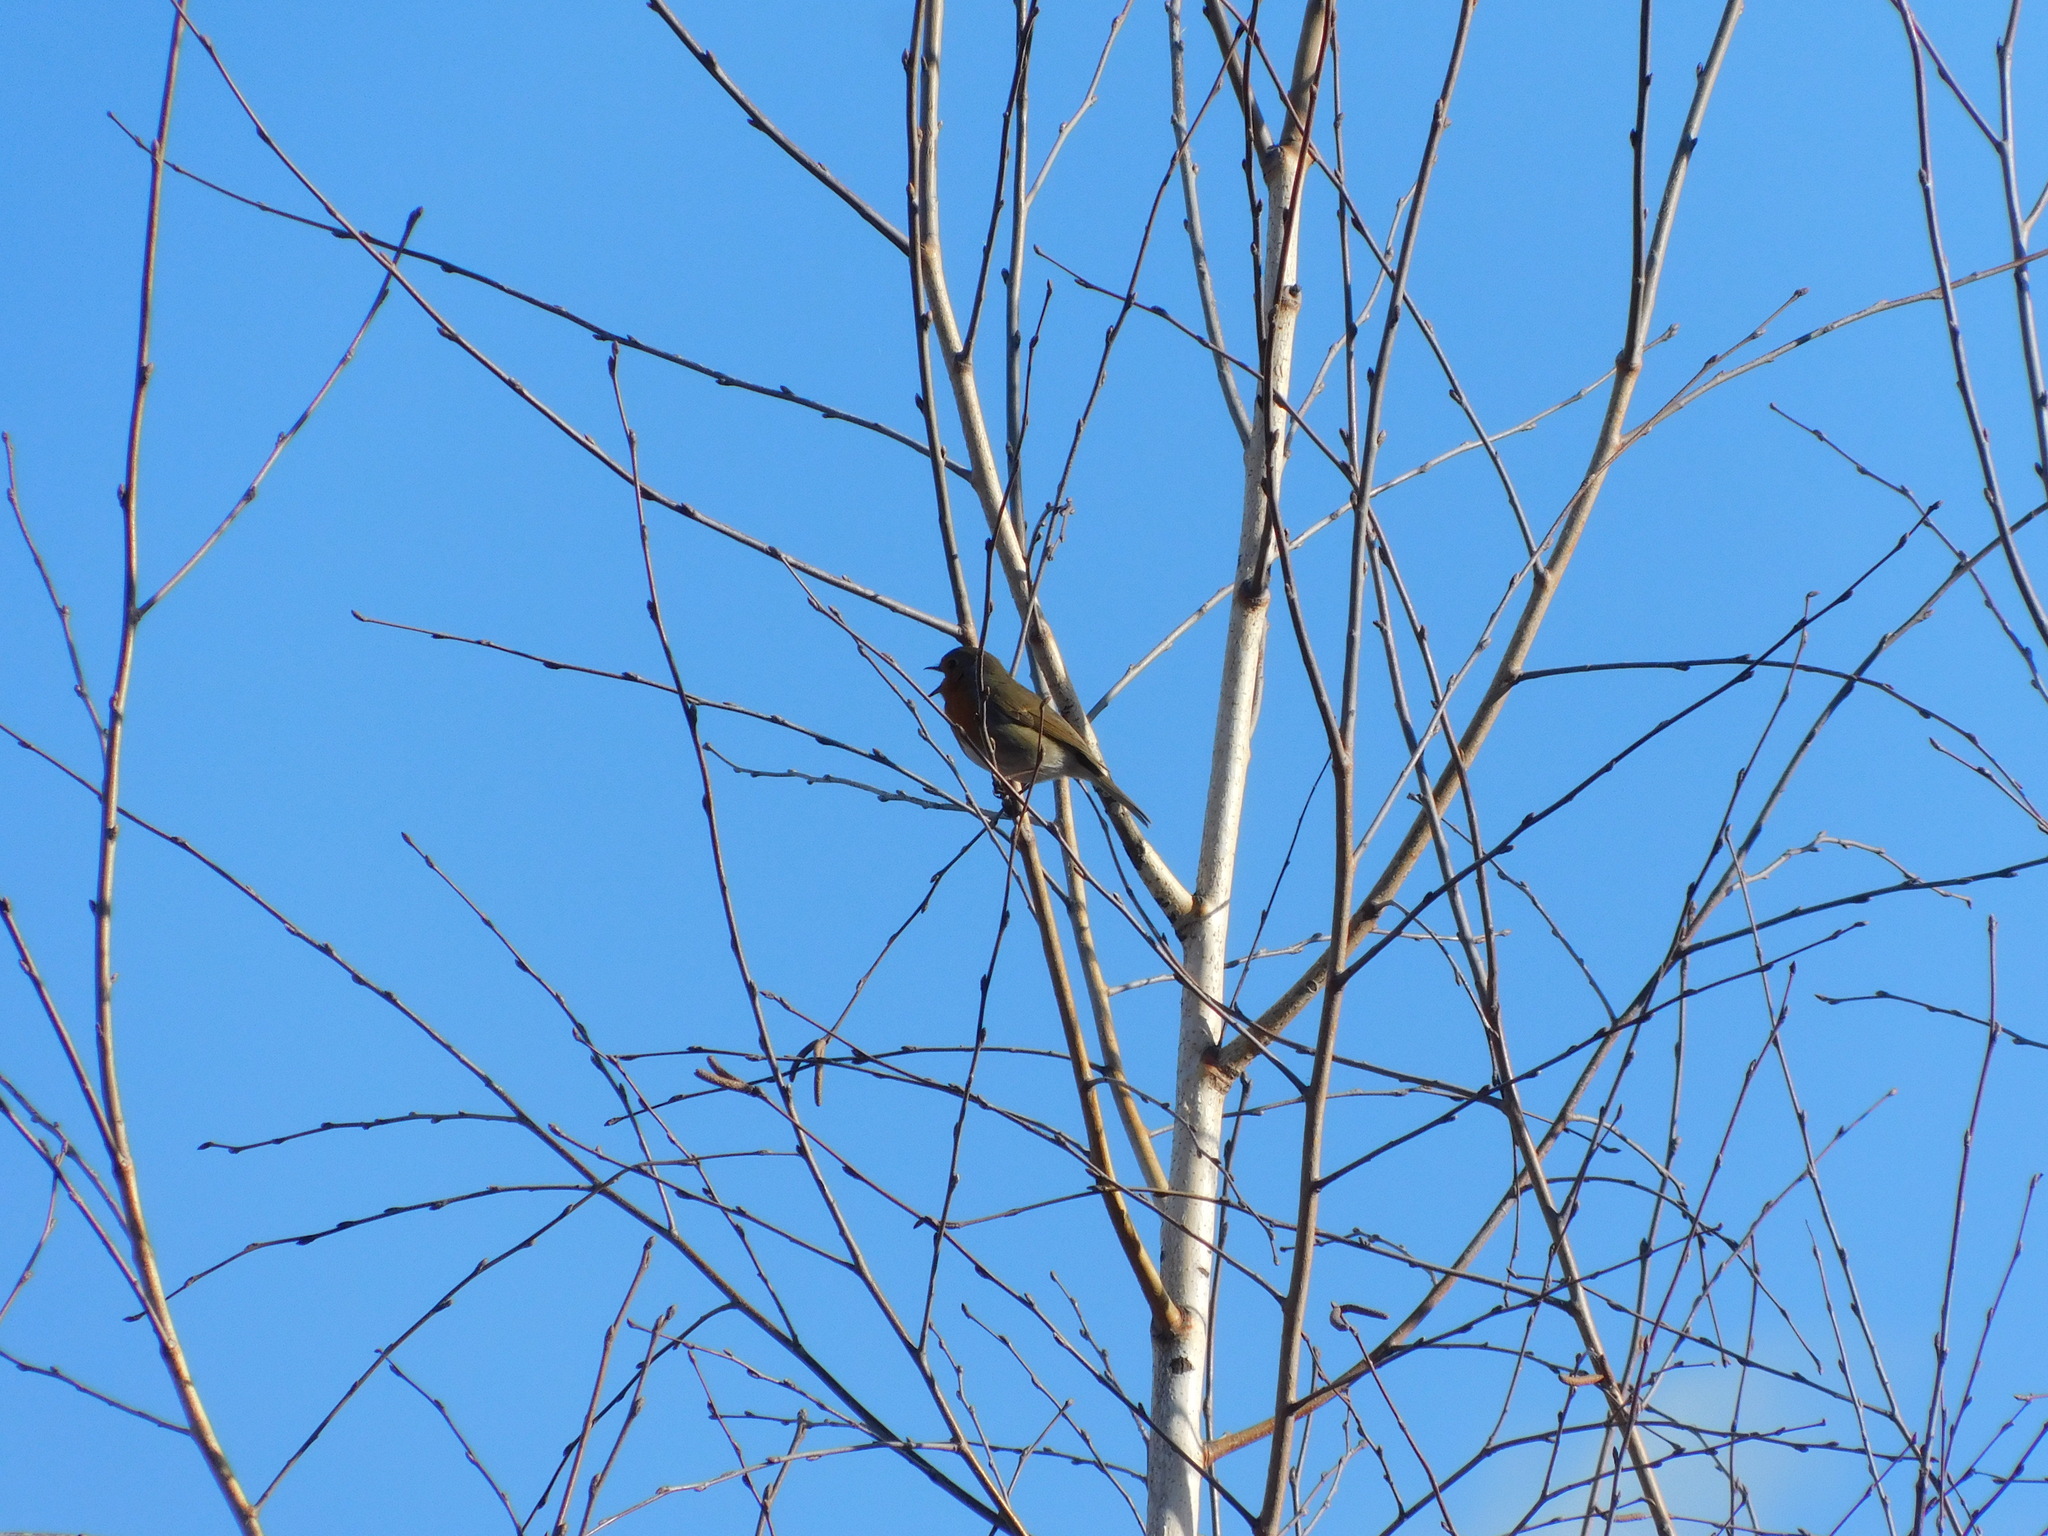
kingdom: Animalia
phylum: Chordata
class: Aves
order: Passeriformes
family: Muscicapidae
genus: Erithacus
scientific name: Erithacus rubecula
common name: European robin
